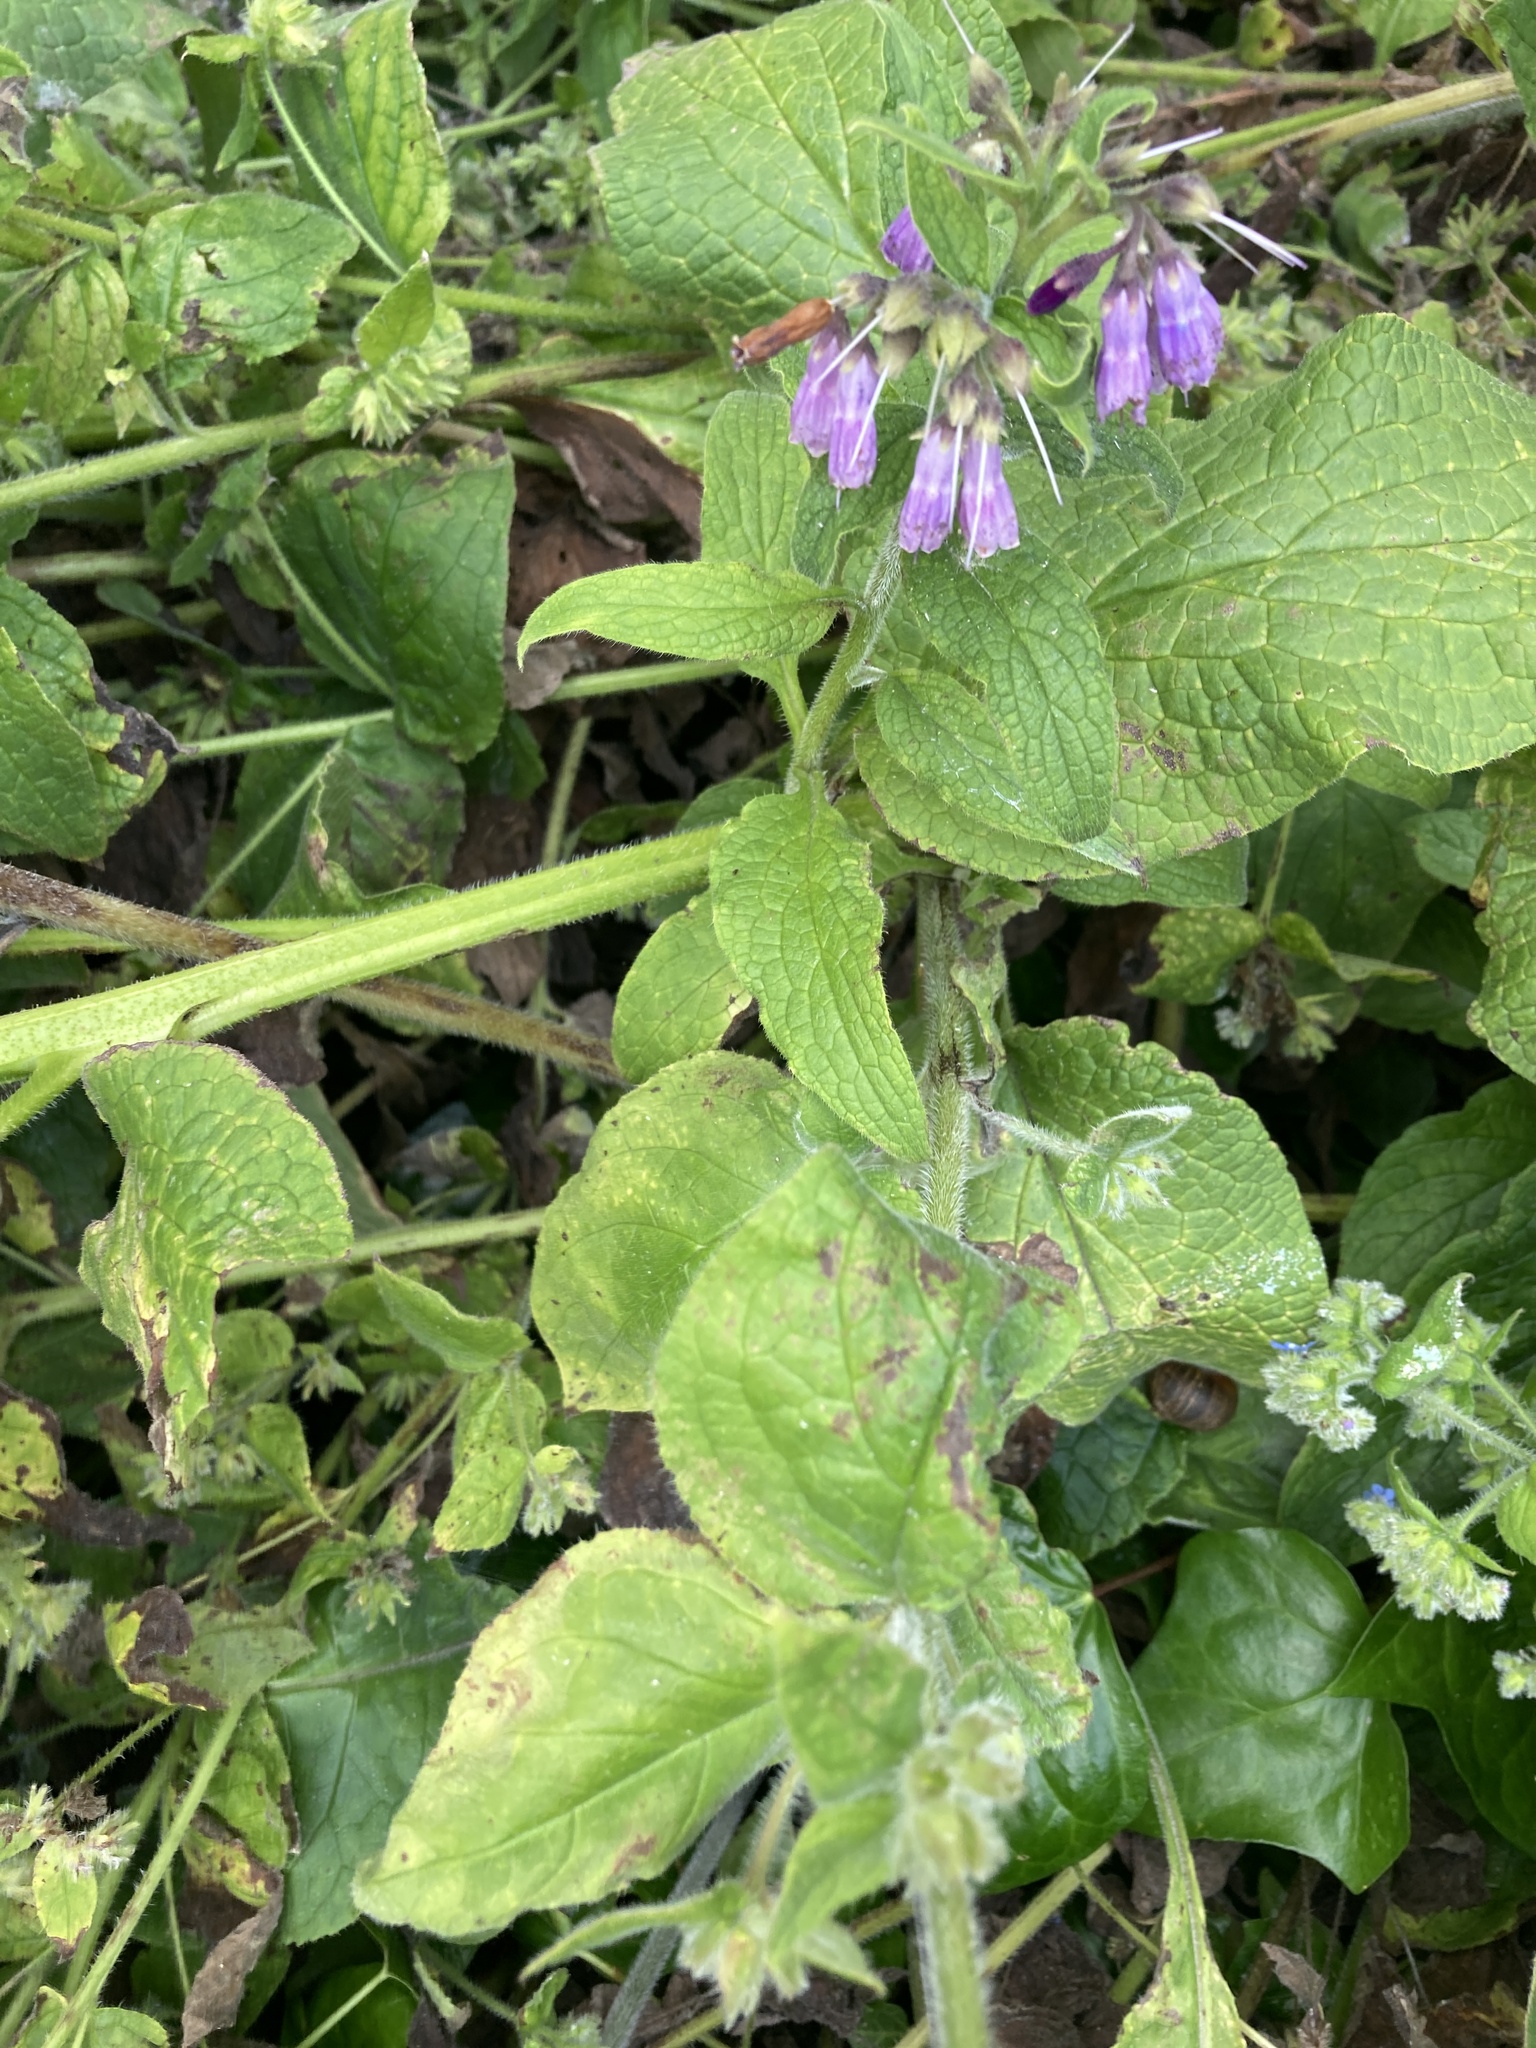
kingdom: Plantae
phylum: Tracheophyta
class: Magnoliopsida
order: Boraginales
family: Boraginaceae
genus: Symphytum
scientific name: Symphytum uplandicum
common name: Russian comfrey
